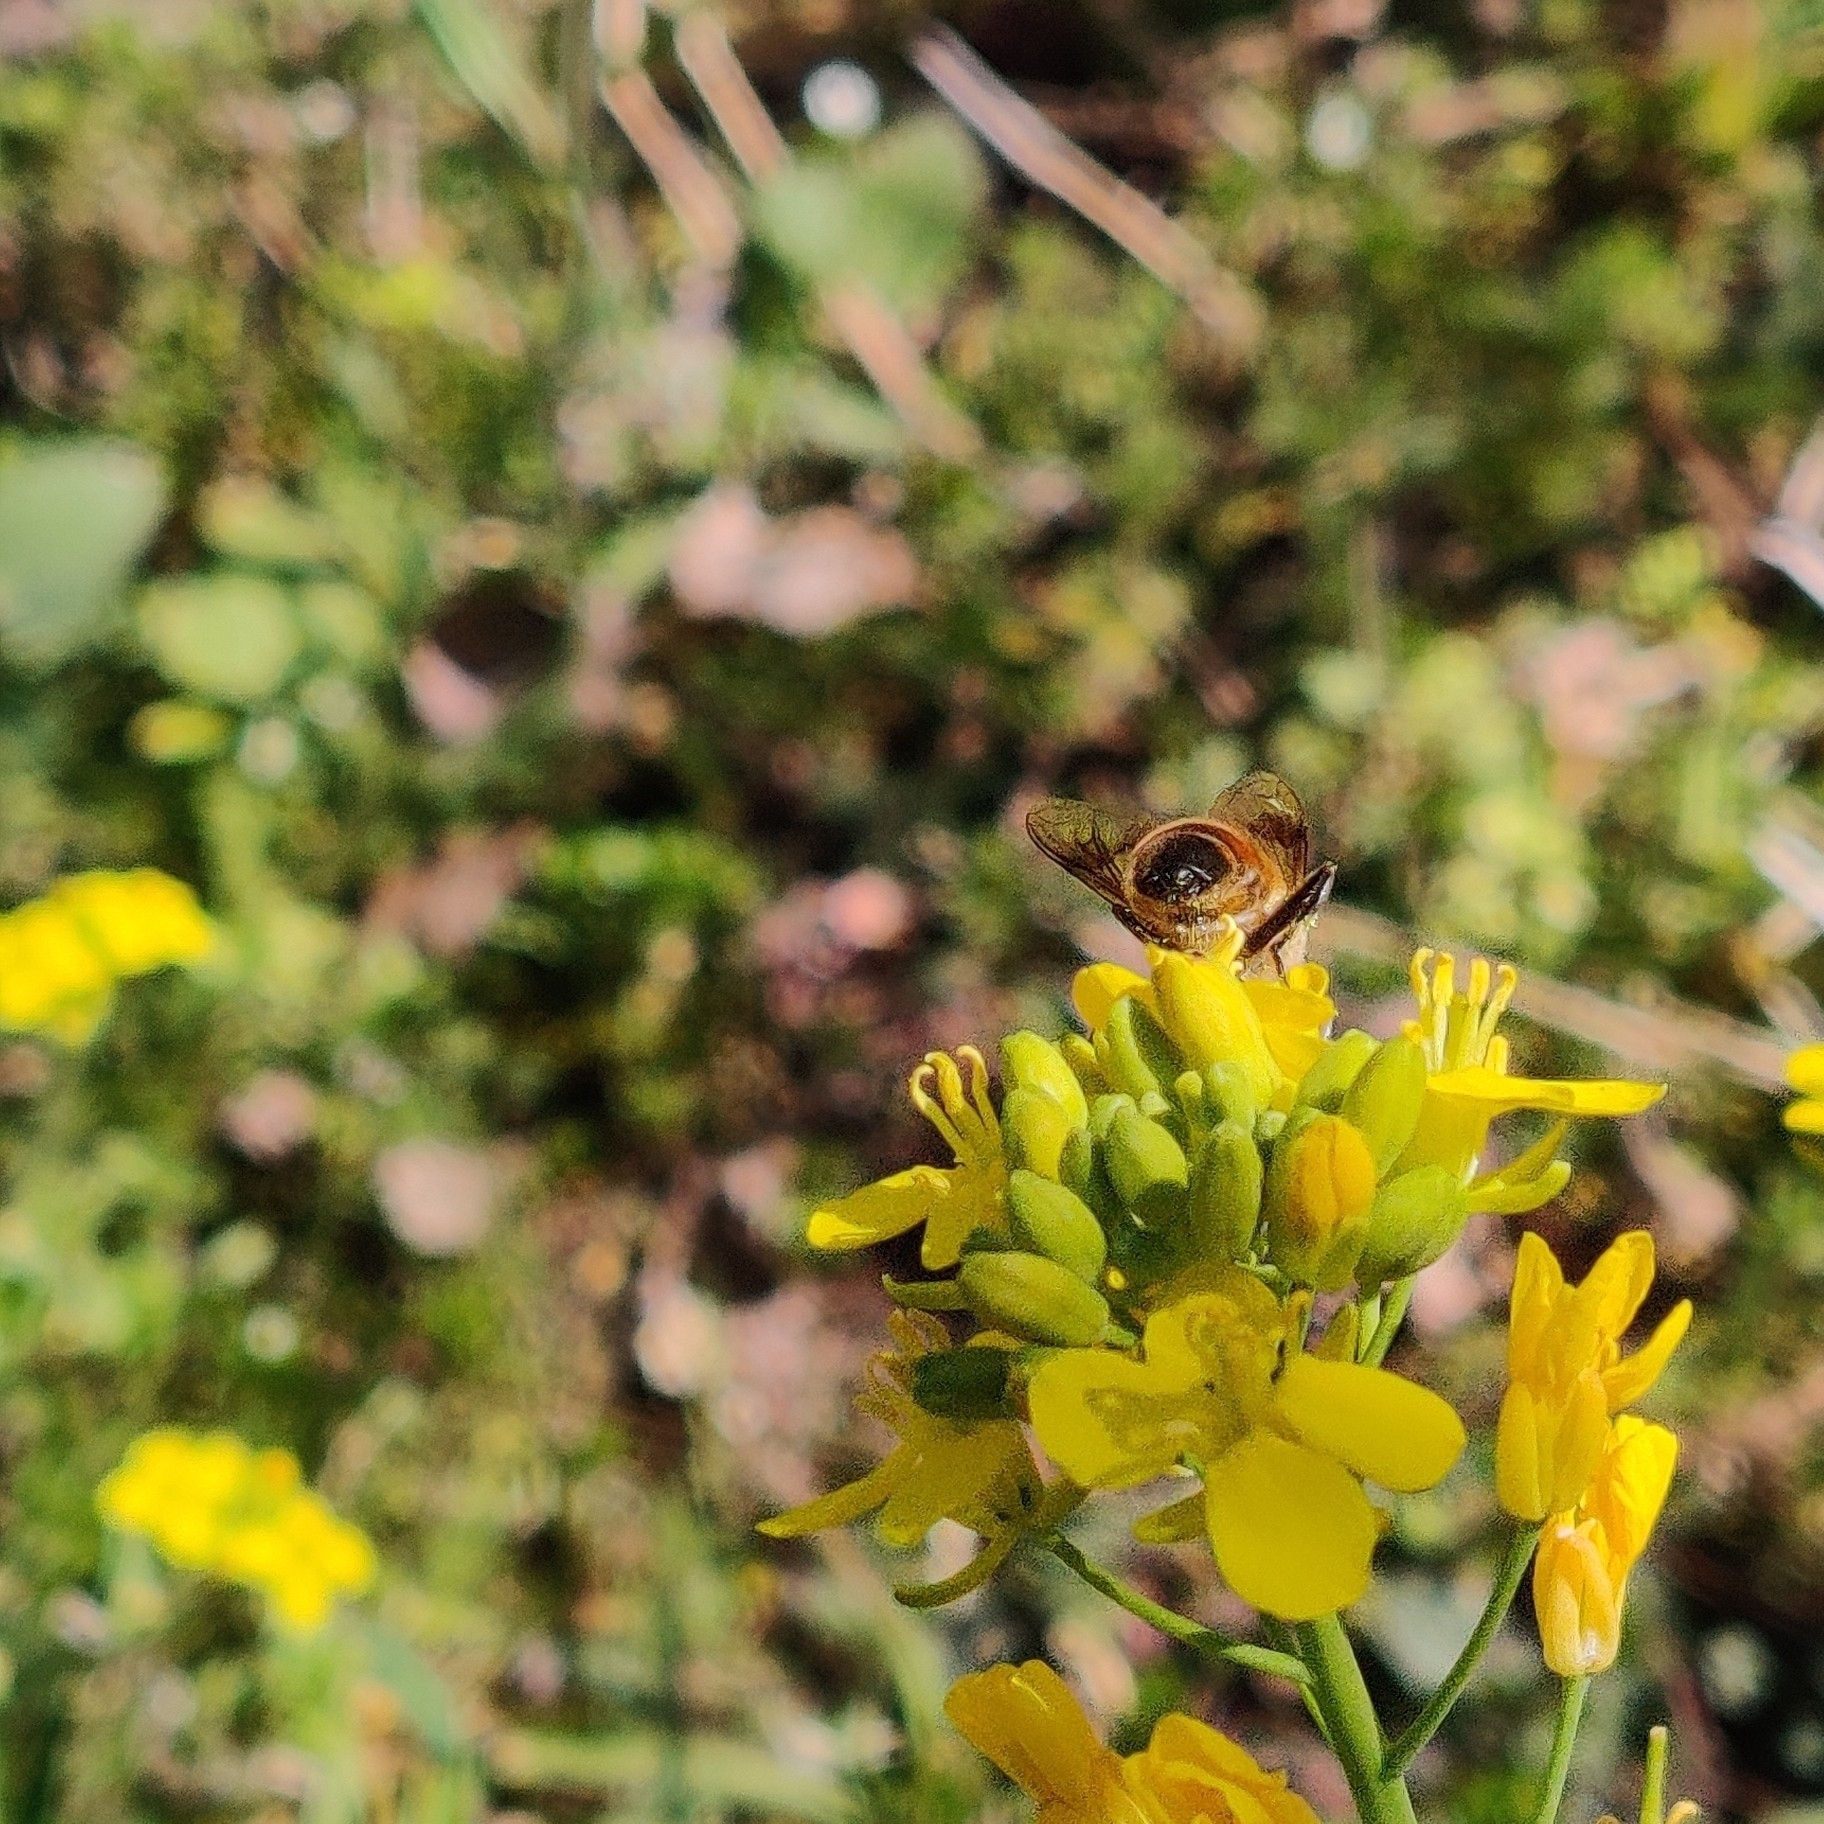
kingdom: Animalia
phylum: Arthropoda
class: Insecta
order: Diptera
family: Syrphidae
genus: Eristalis
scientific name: Eristalis tenax
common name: Drone fly
